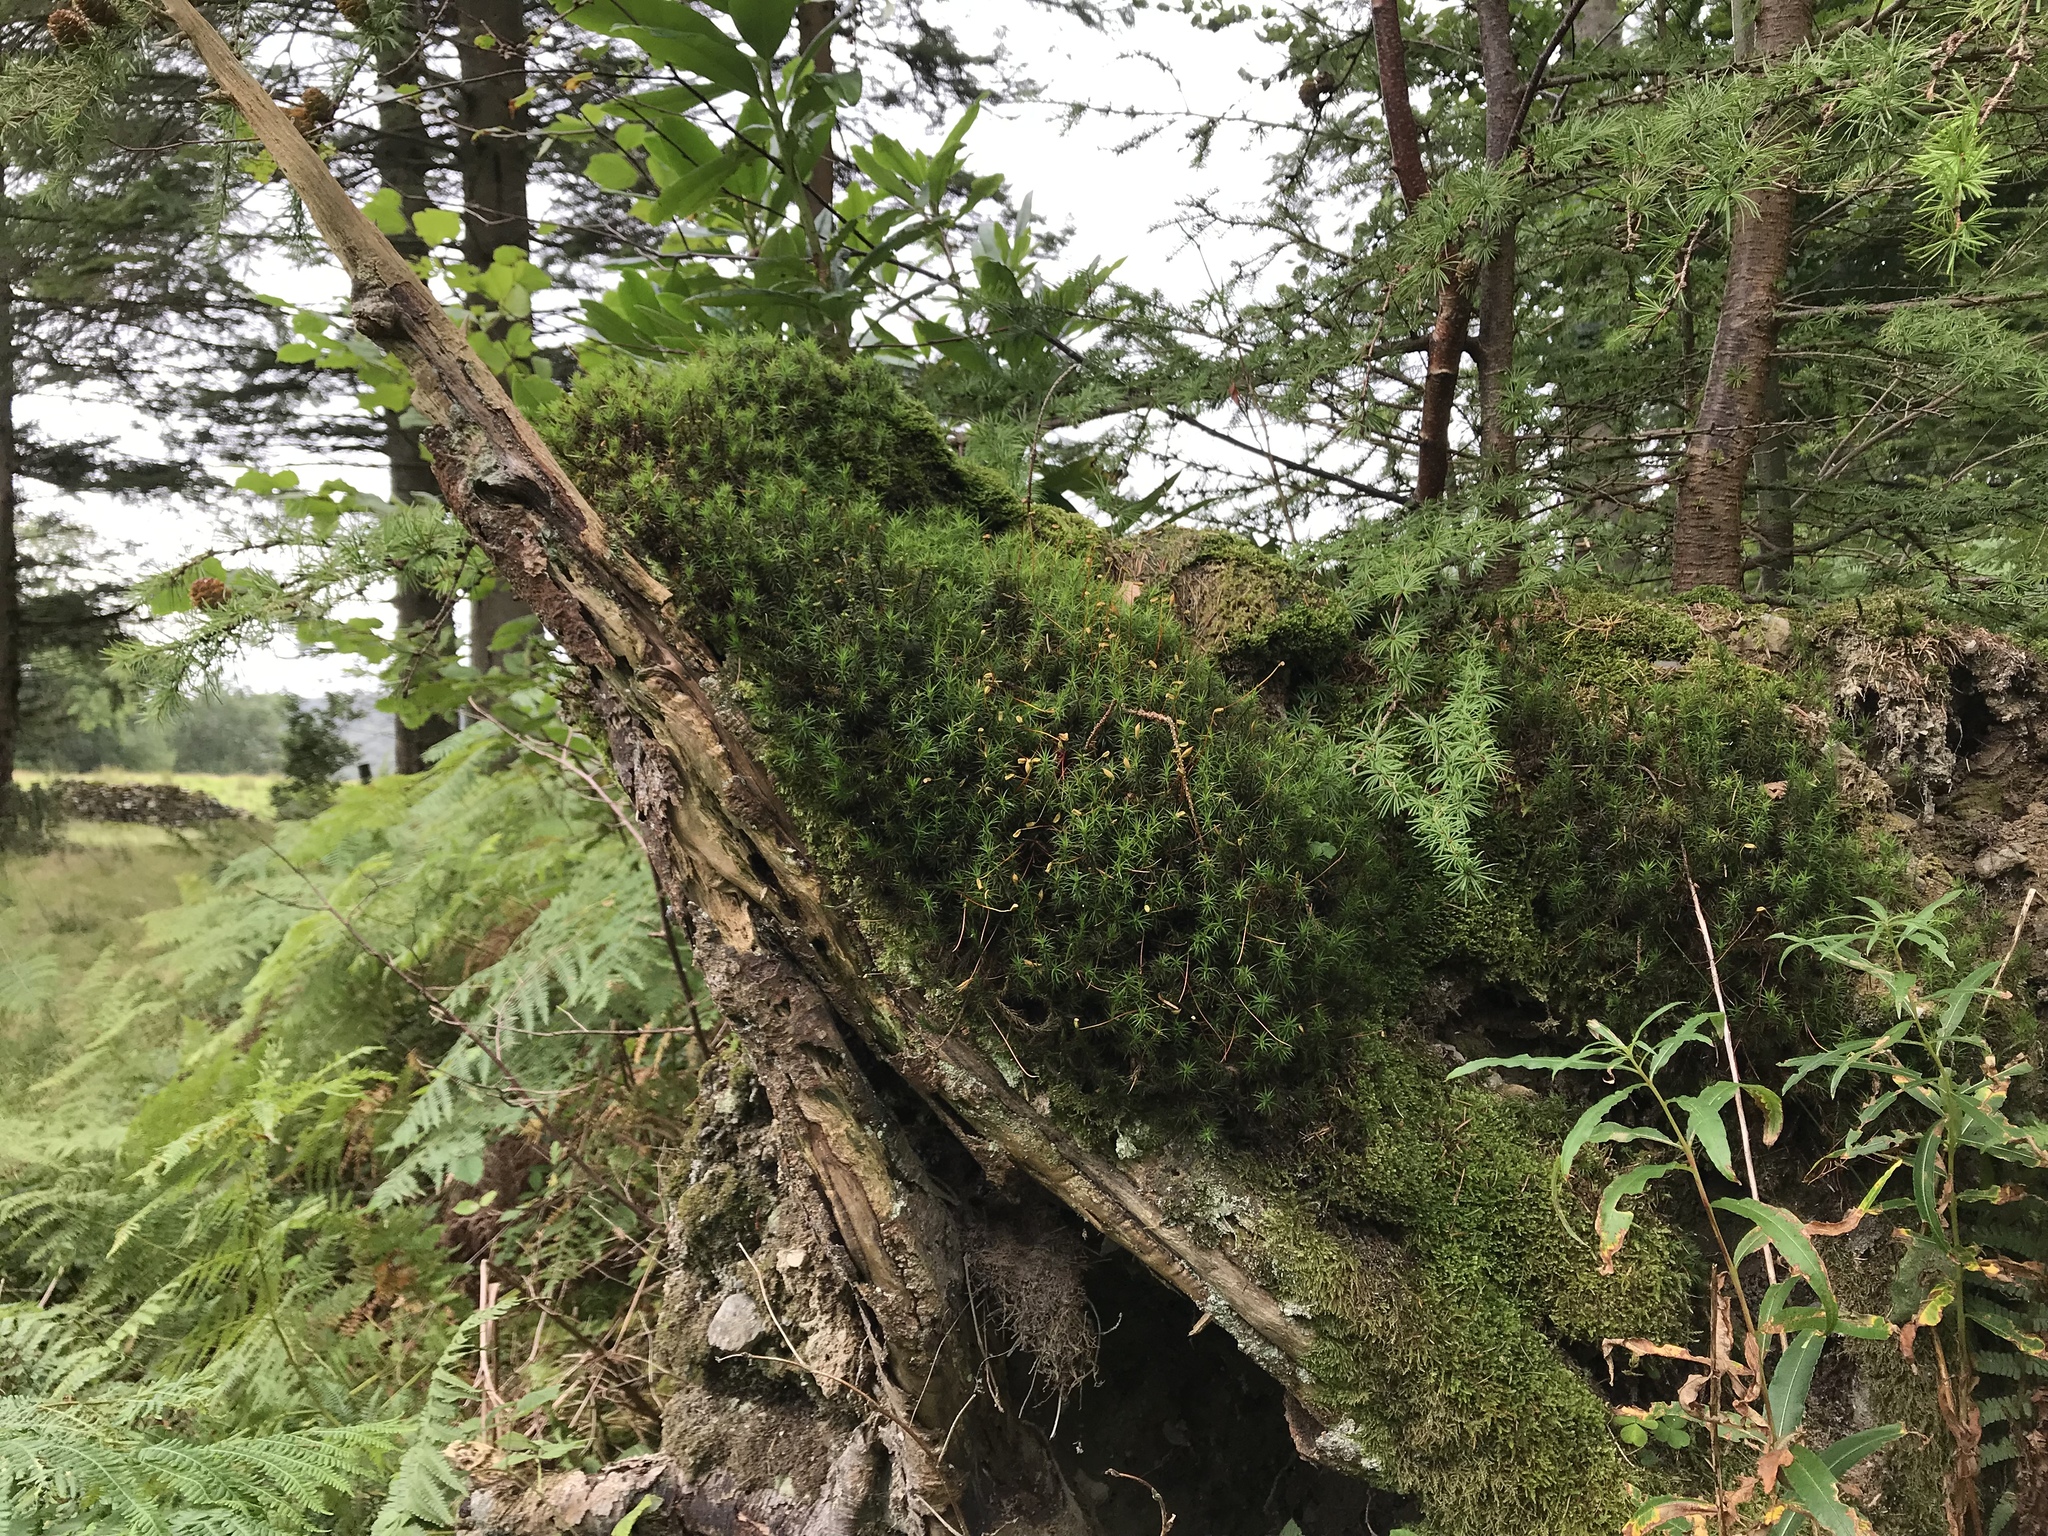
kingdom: Plantae
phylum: Bryophyta
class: Polytrichopsida
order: Polytrichales
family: Polytrichaceae
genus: Polytrichum
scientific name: Polytrichum formosum
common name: Bank haircap moss
